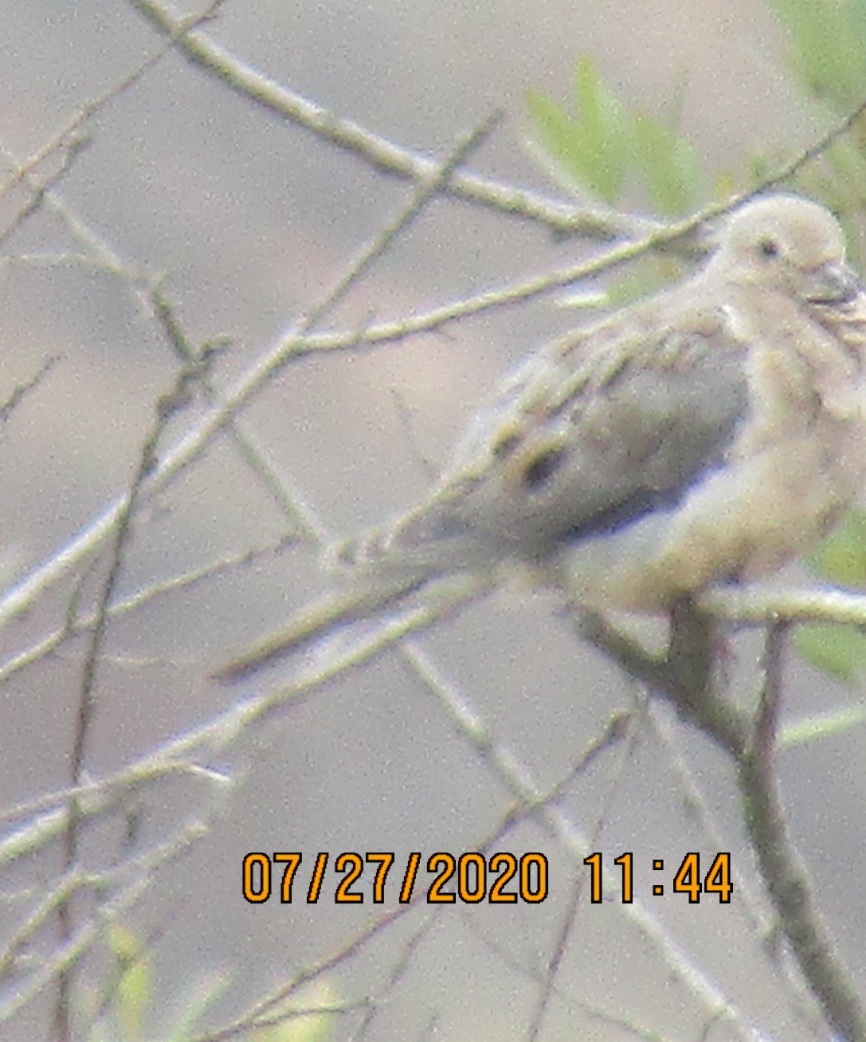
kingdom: Animalia
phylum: Chordata
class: Aves
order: Columbiformes
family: Columbidae
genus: Zenaida
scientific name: Zenaida macroura
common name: Mourning dove
